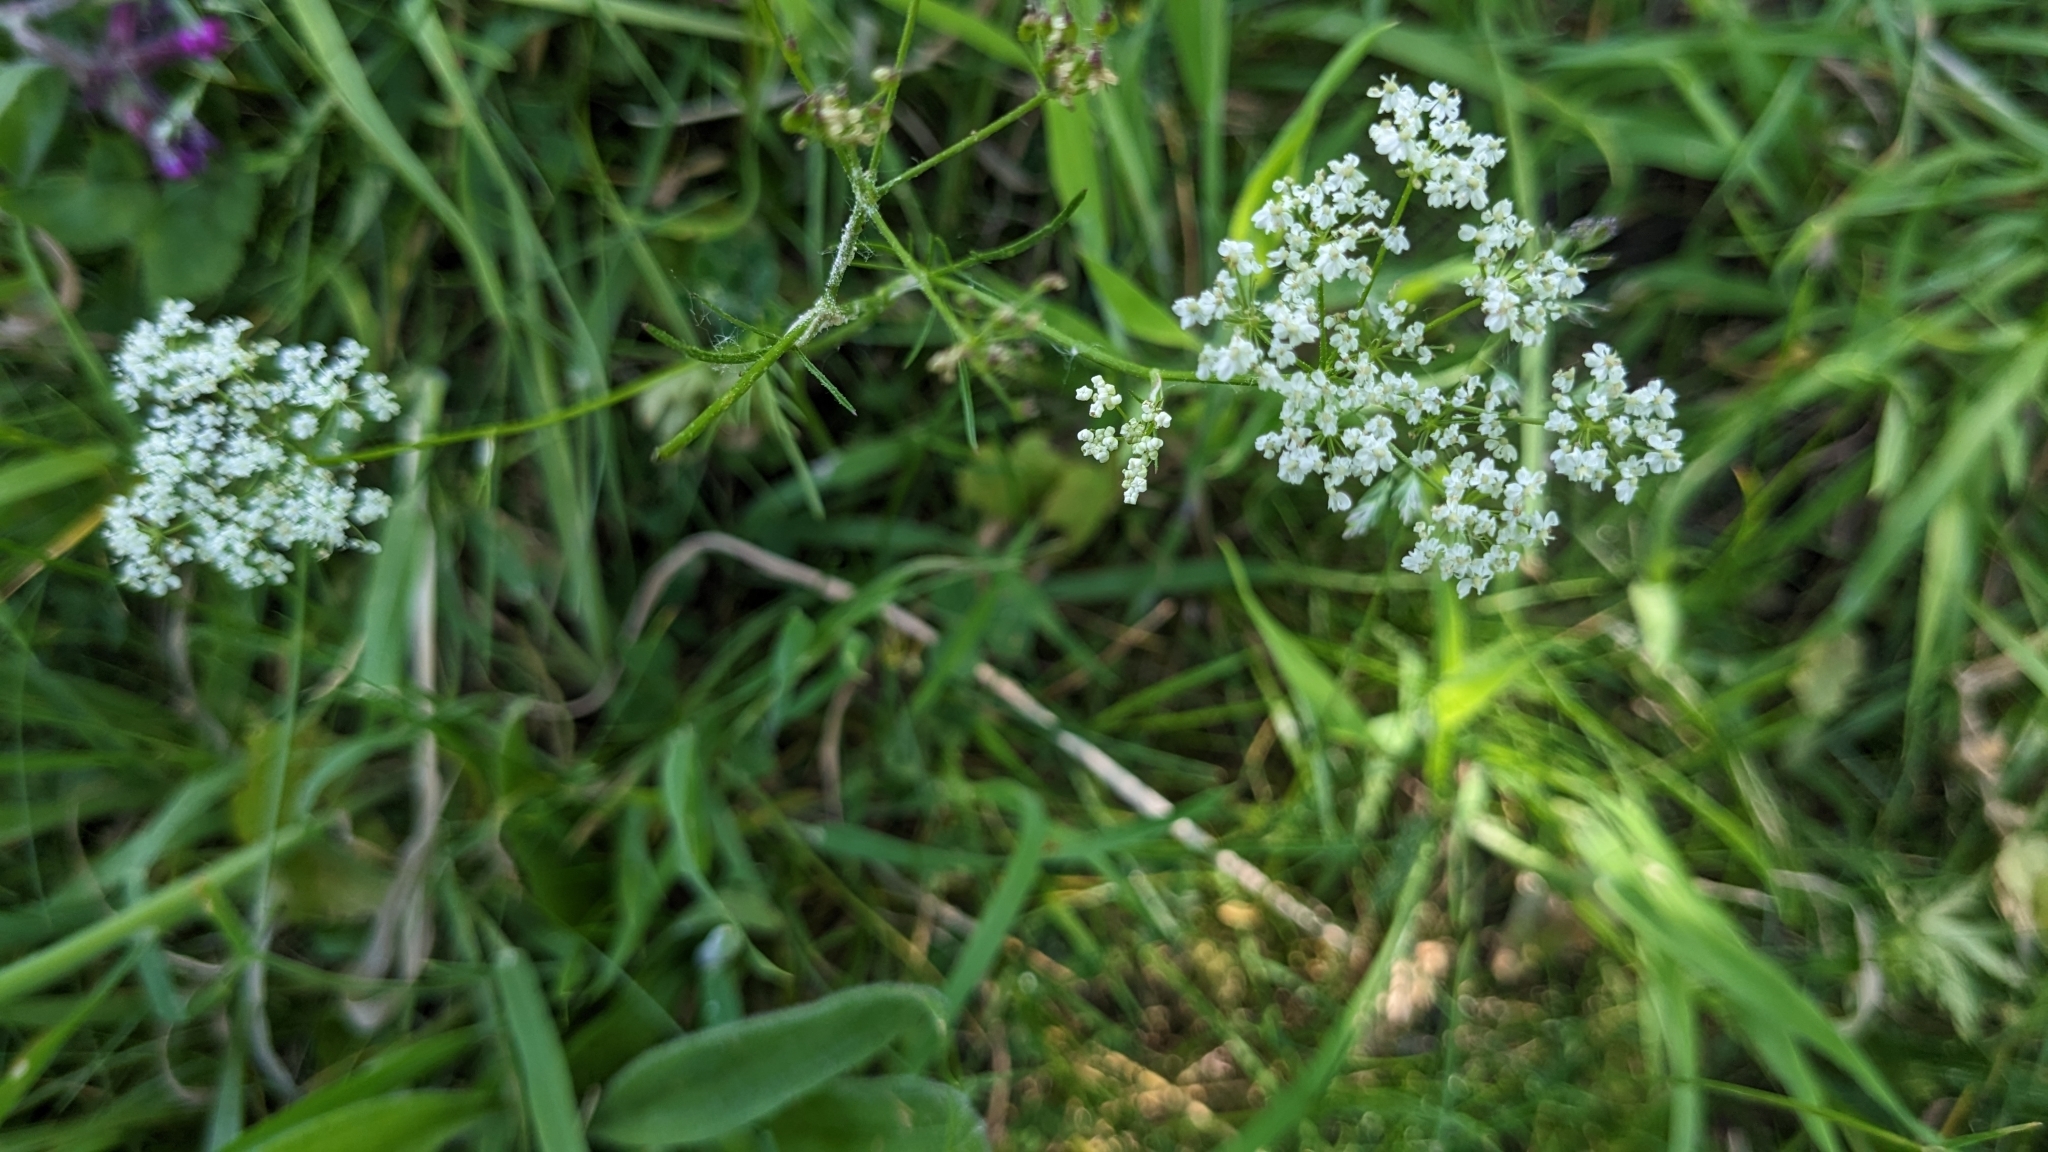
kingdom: Plantae
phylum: Tracheophyta
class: Magnoliopsida
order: Apiales
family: Apiaceae
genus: Conopodium
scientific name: Conopodium majus
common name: Pignut
